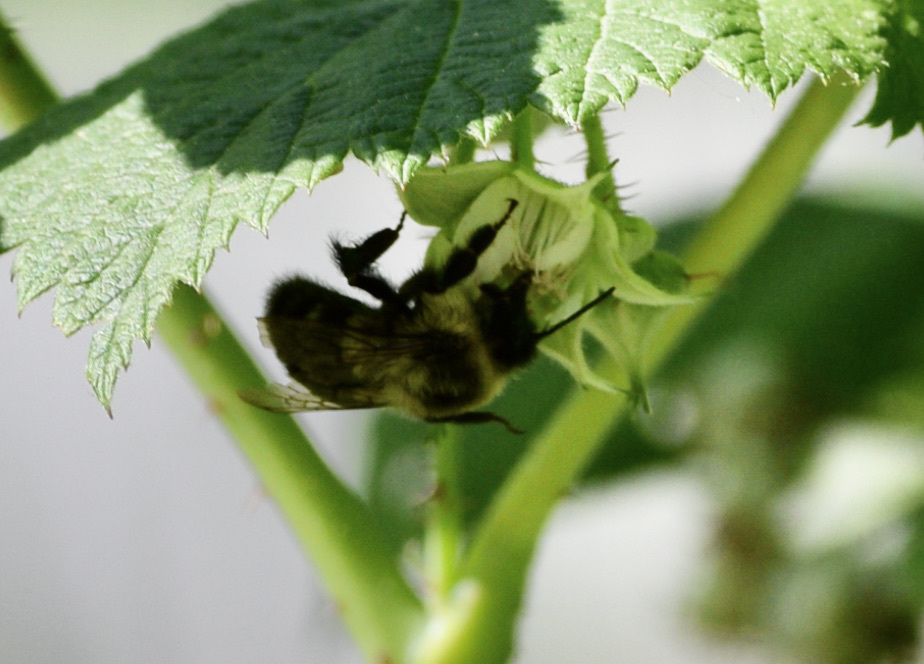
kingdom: Animalia
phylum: Arthropoda
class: Insecta
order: Hymenoptera
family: Apidae
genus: Bombus
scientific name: Bombus impatiens
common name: Common eastern bumble bee
